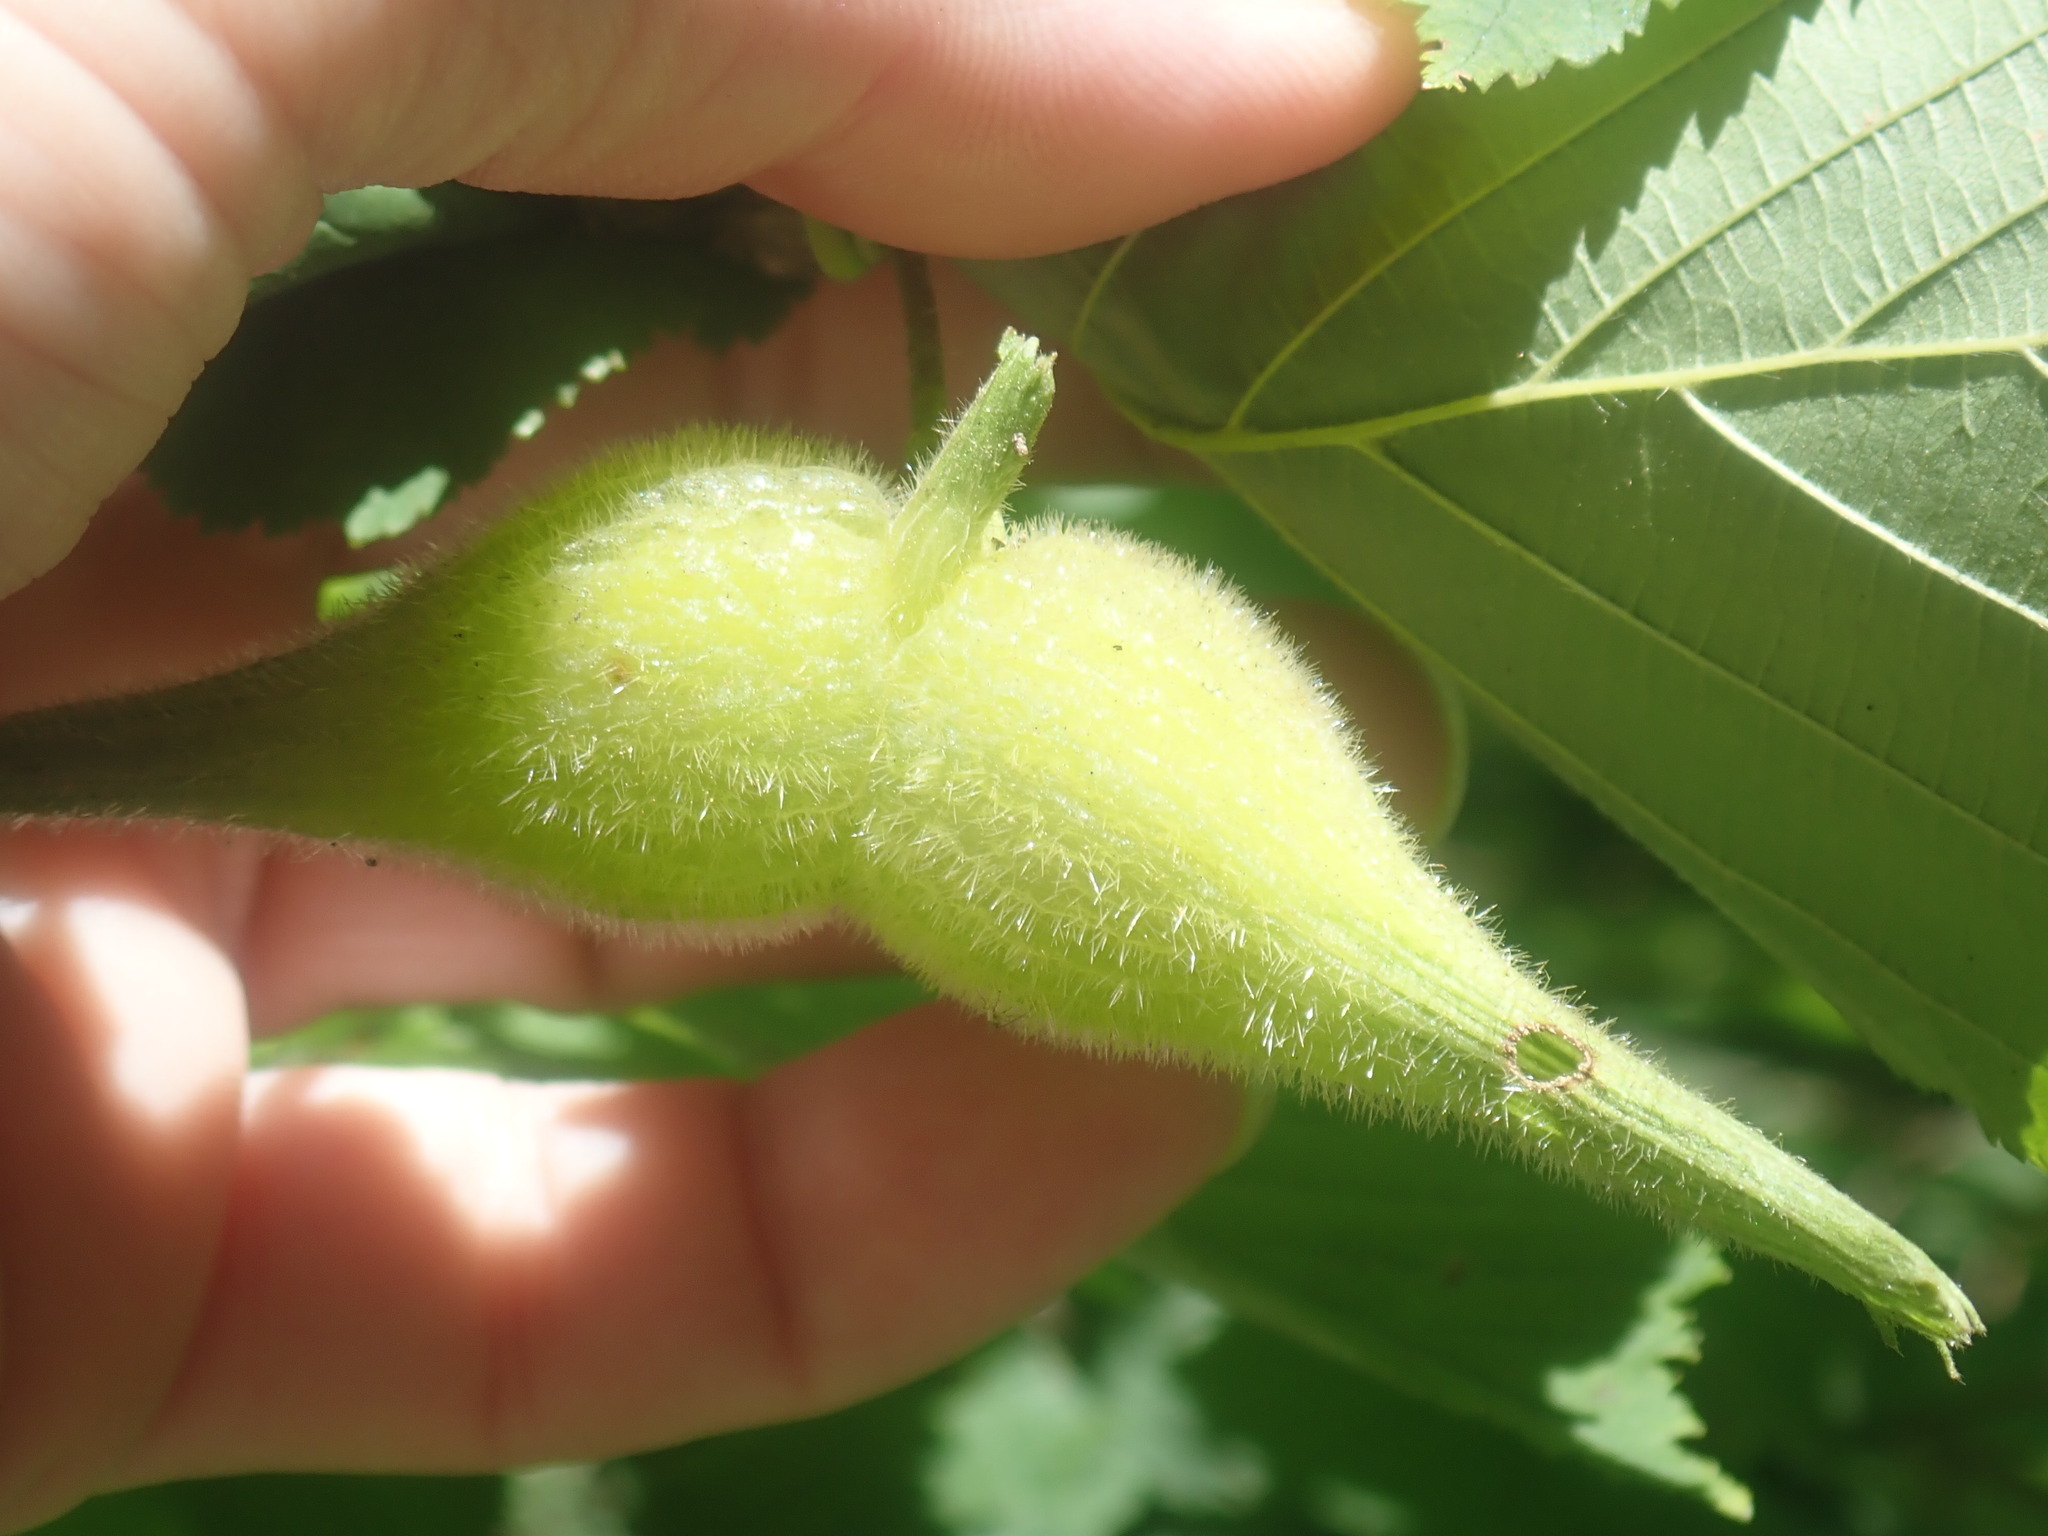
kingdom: Plantae
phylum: Tracheophyta
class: Magnoliopsida
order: Fagales
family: Betulaceae
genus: Corylus
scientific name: Corylus cornuta
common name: Beaked hazel
